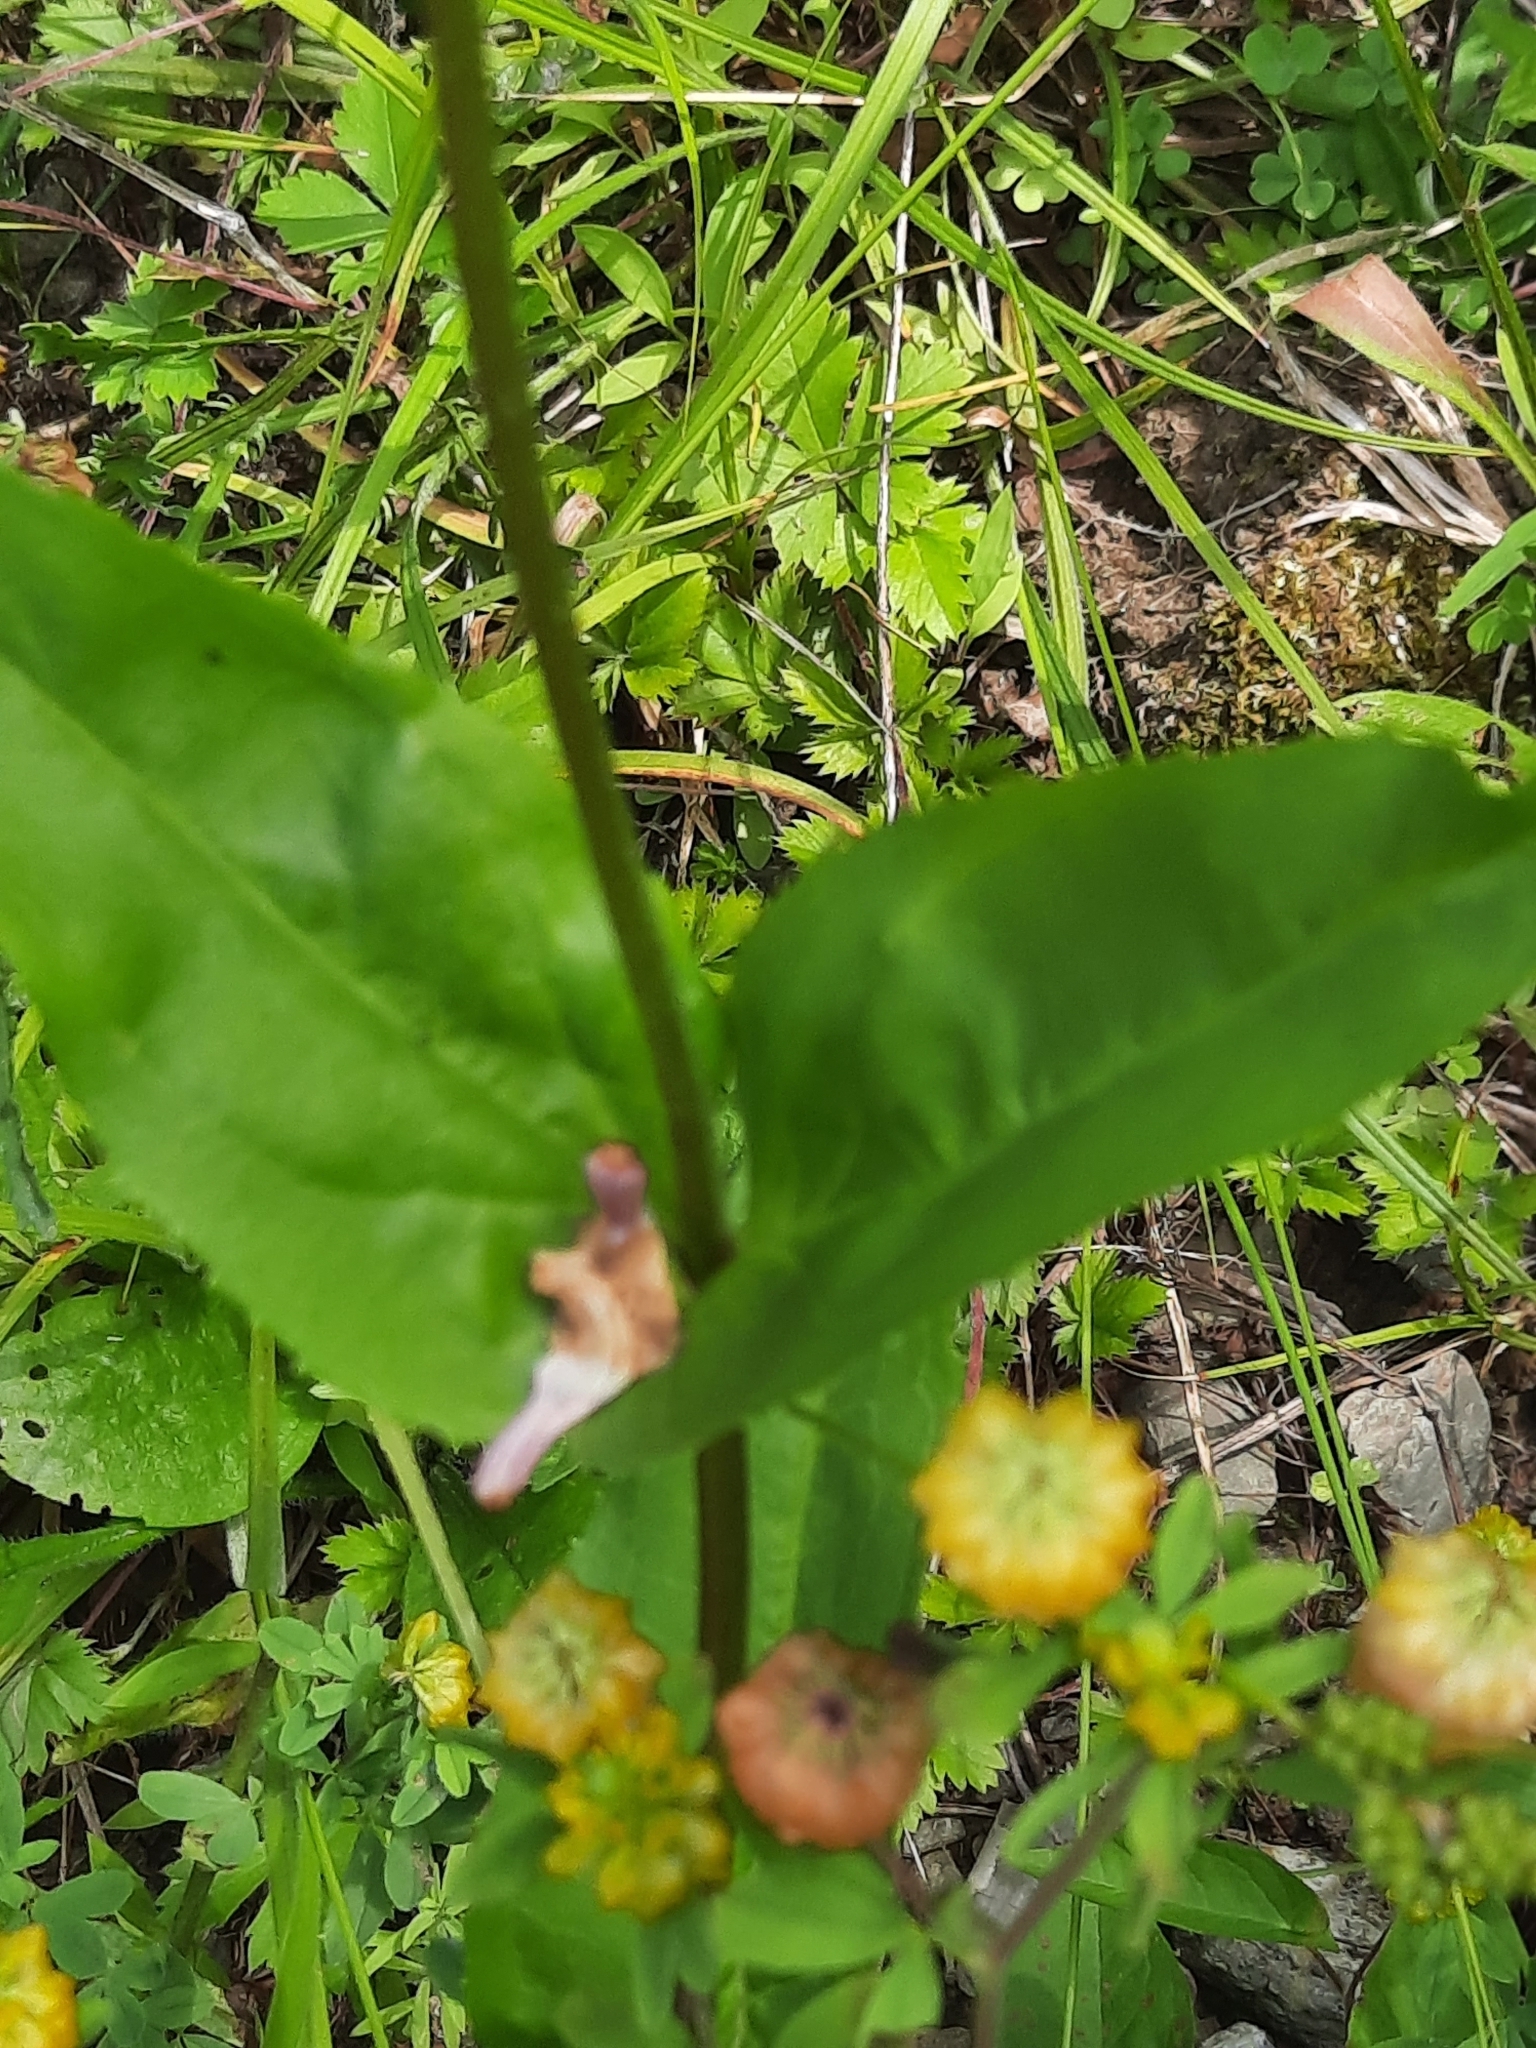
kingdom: Plantae
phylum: Tracheophyta
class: Magnoliopsida
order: Lamiales
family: Plantaginaceae
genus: Penstemon
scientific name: Penstemon digitalis
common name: Foxglove beardtongue
